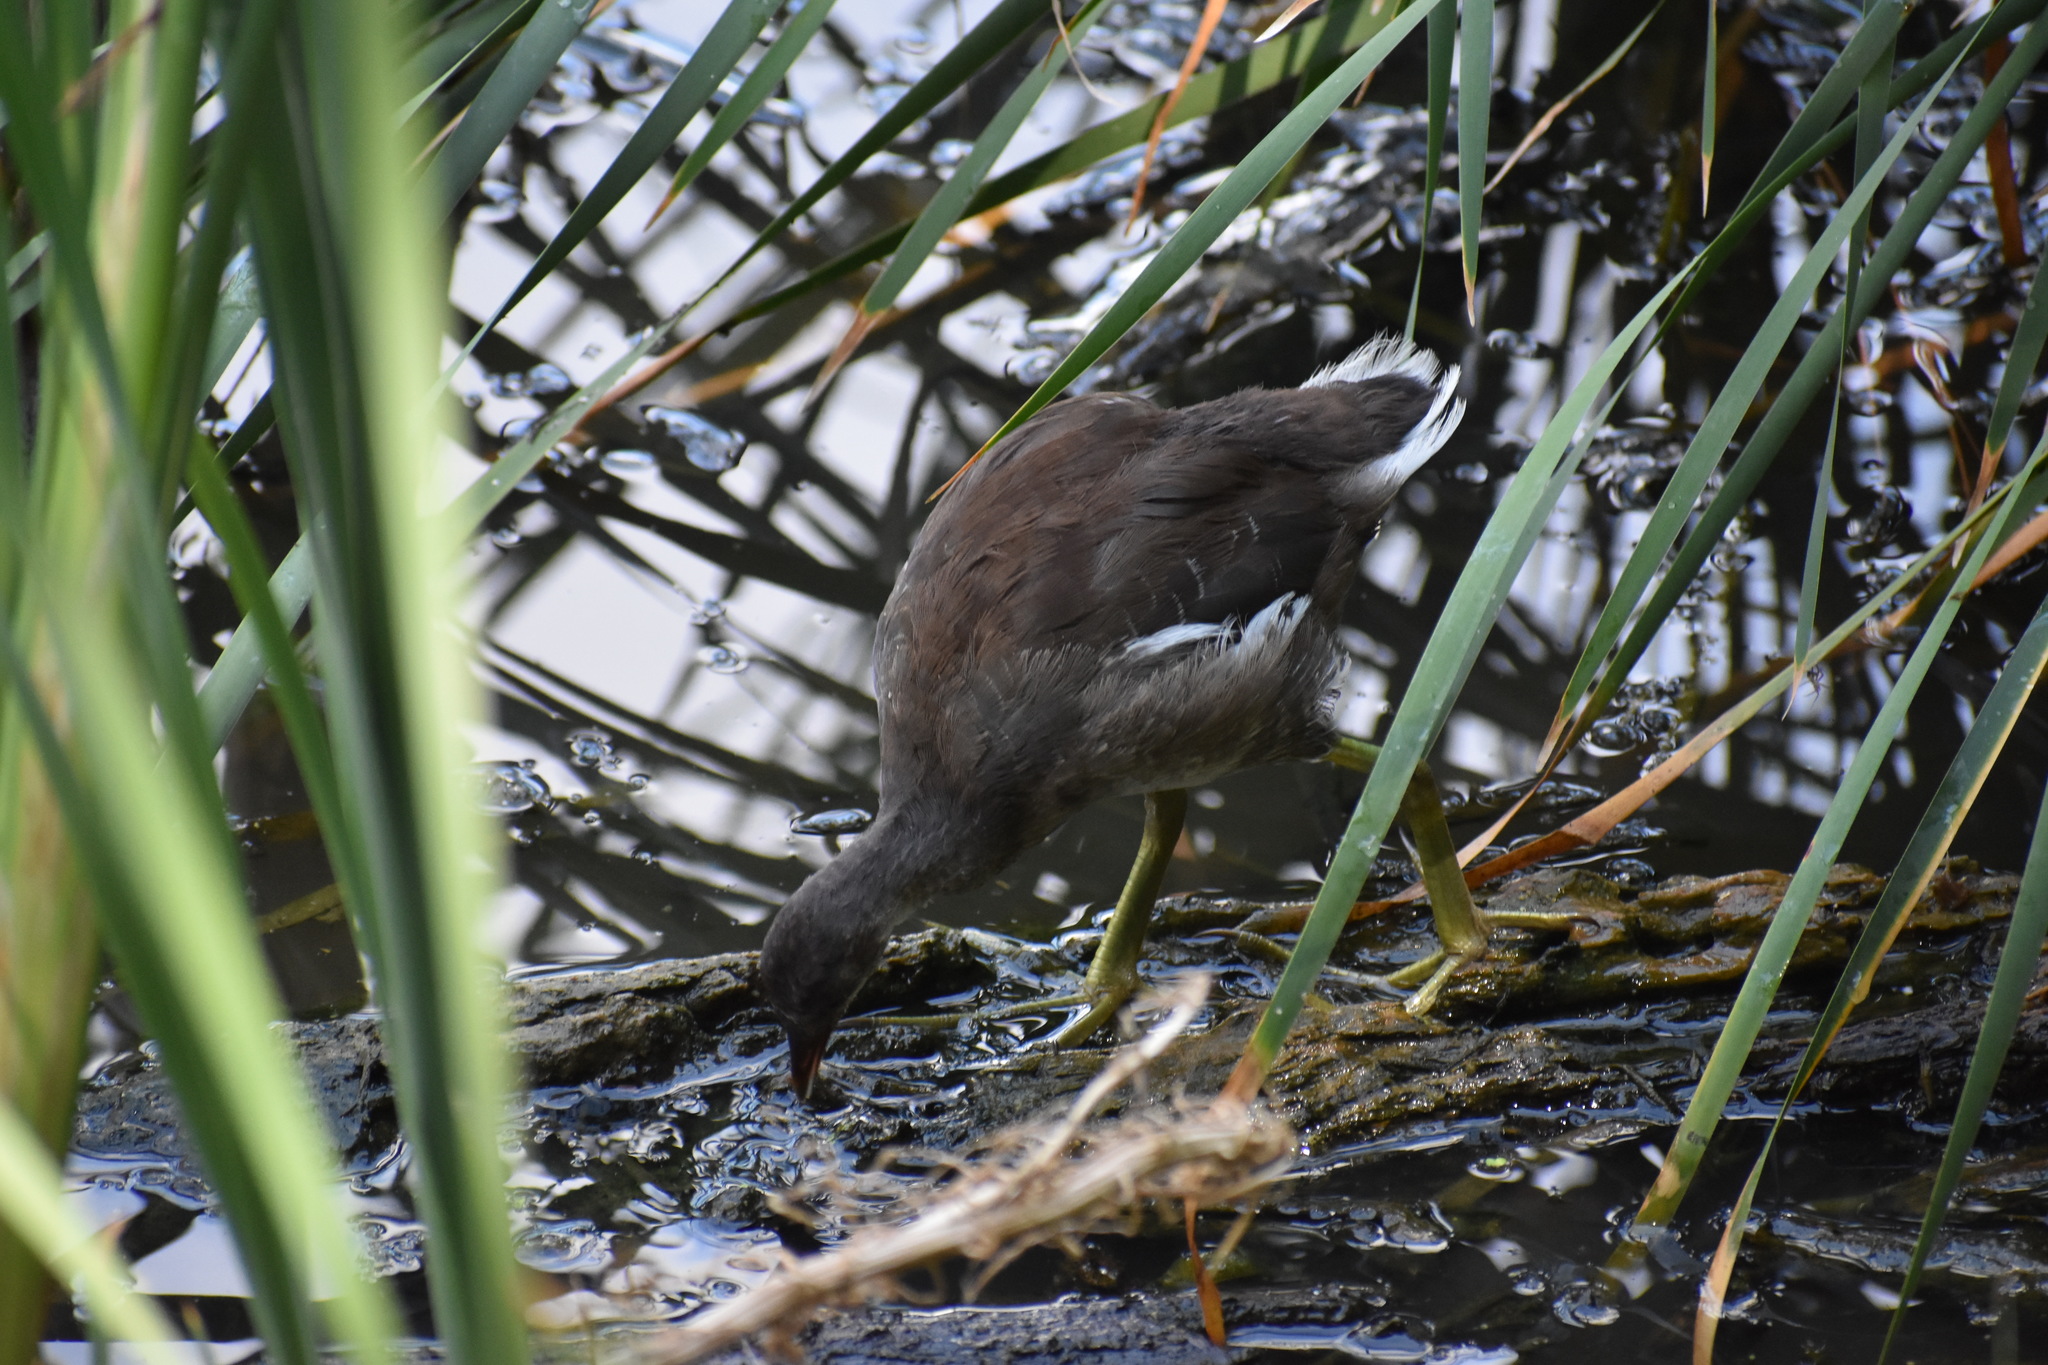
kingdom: Animalia
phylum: Chordata
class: Aves
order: Gruiformes
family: Rallidae
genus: Gallinula
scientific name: Gallinula chloropus
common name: Common moorhen
